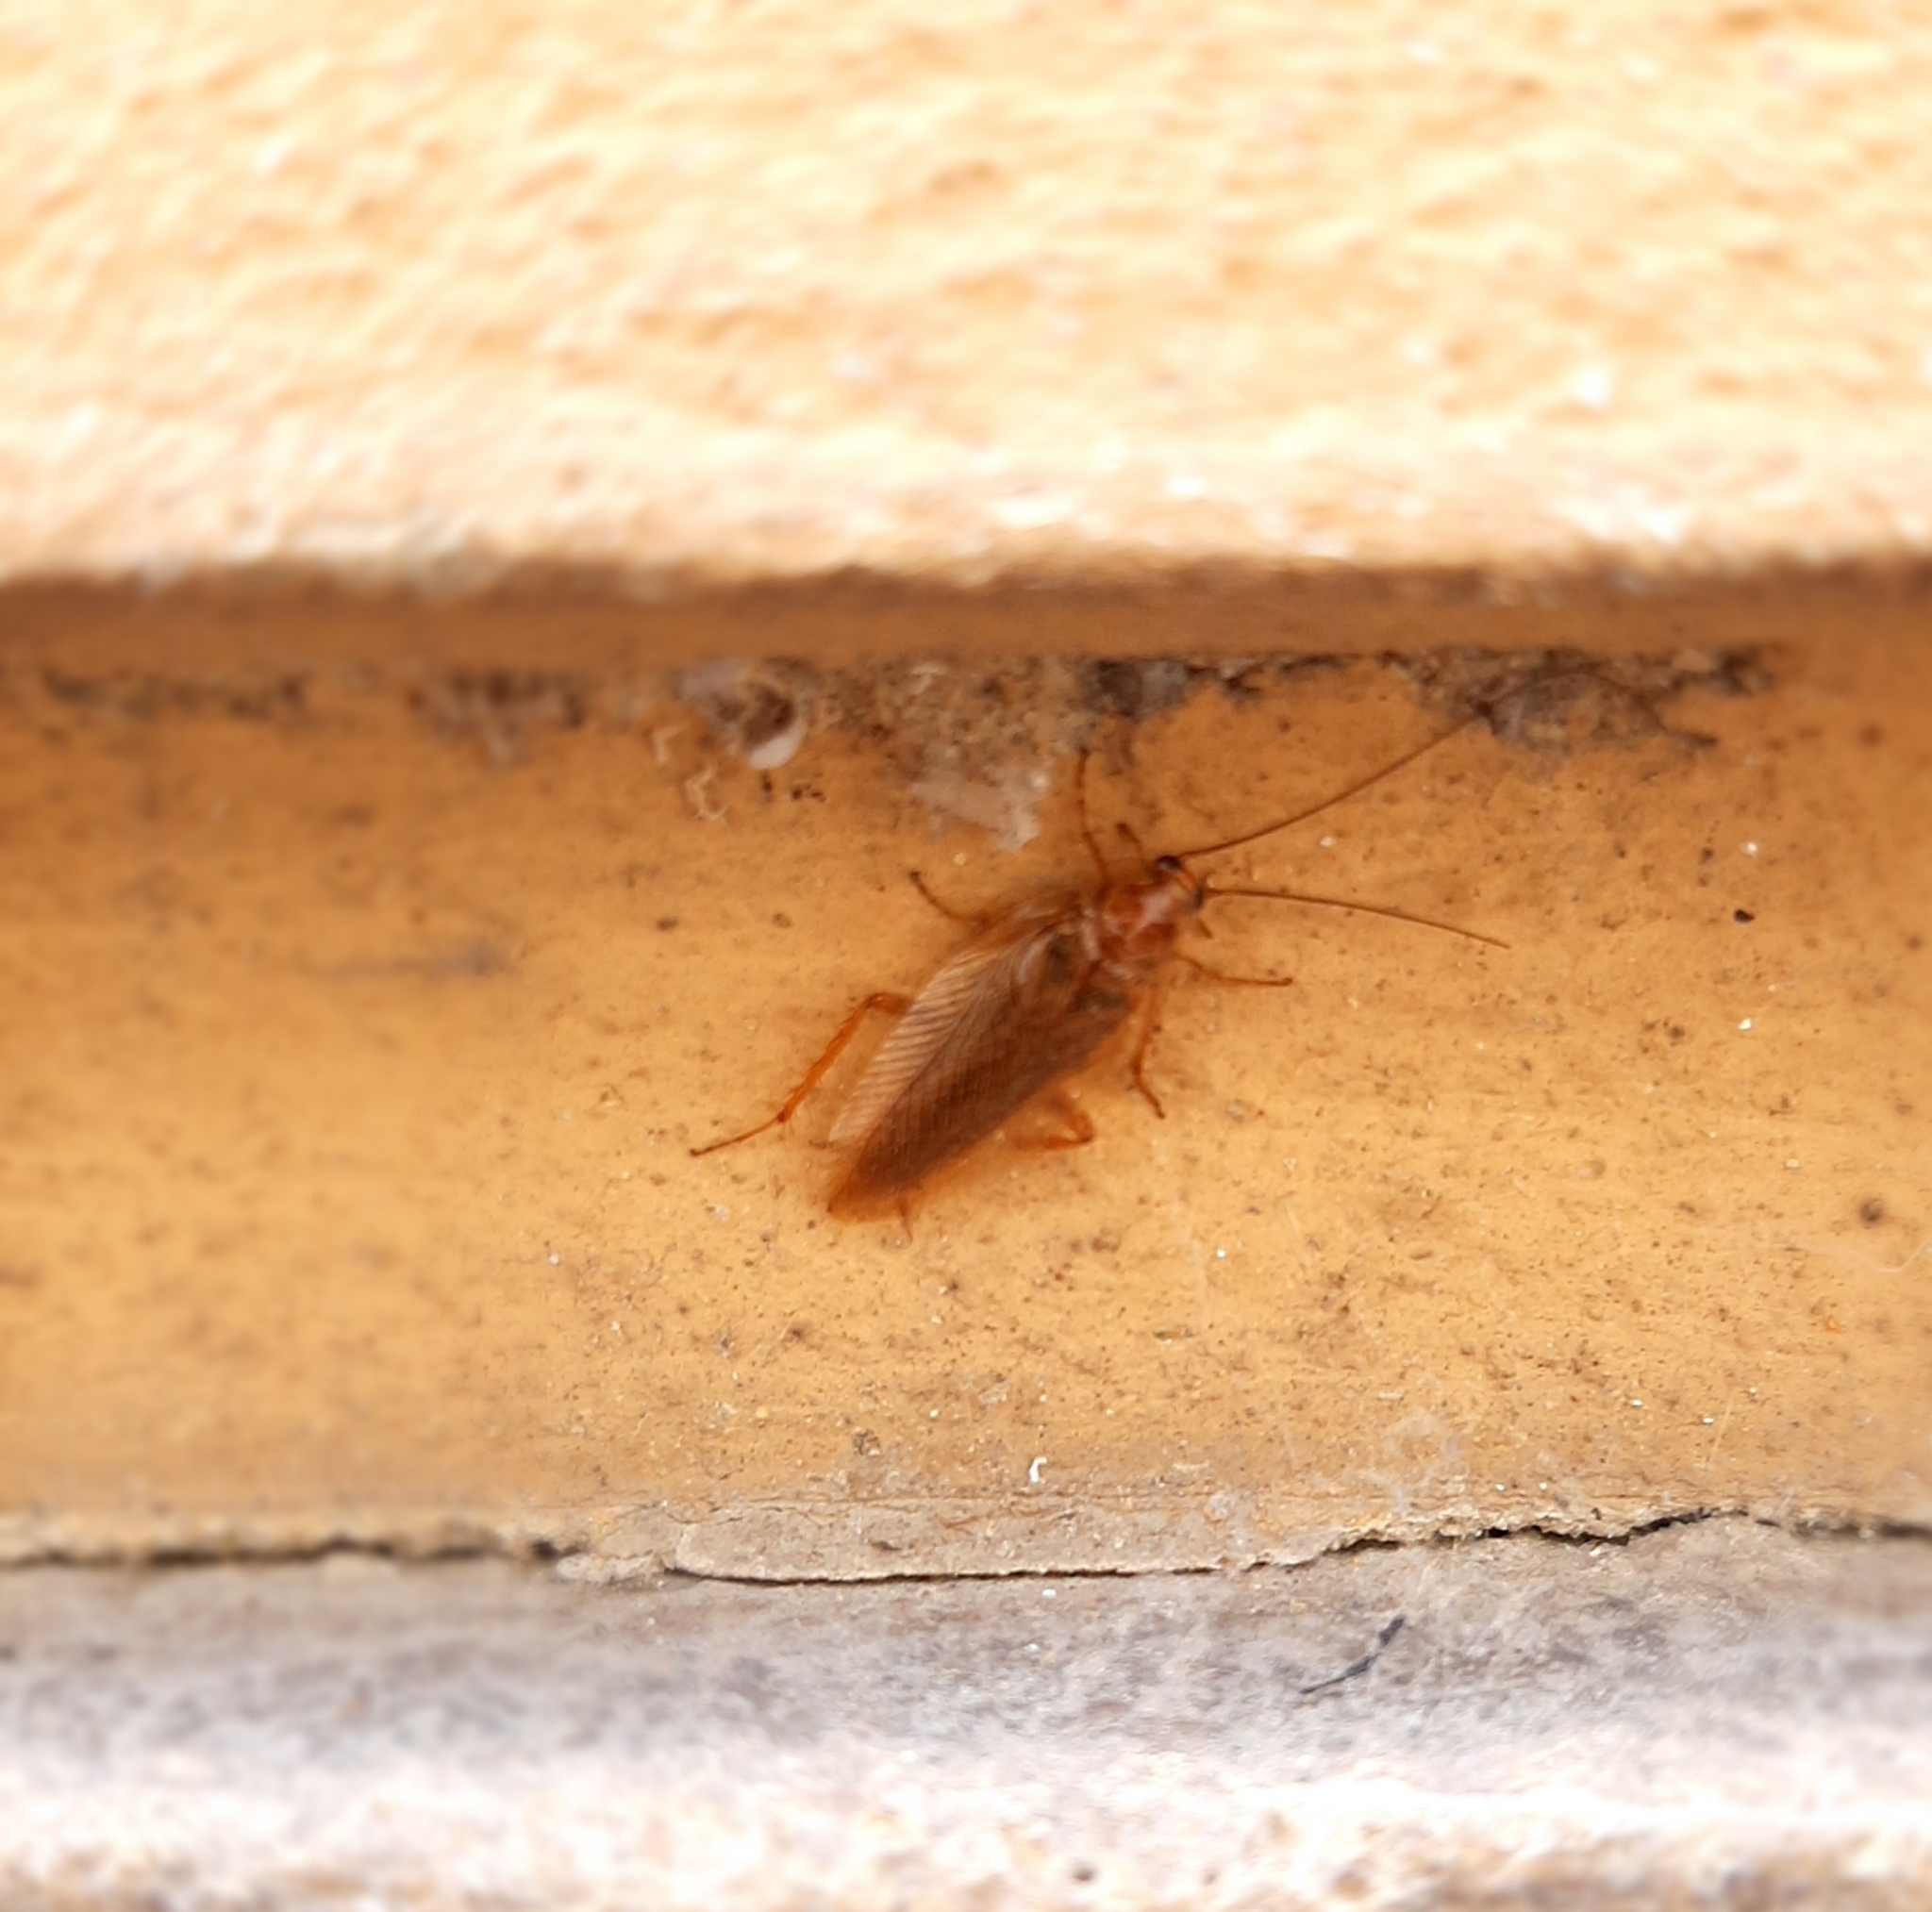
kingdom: Animalia
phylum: Arthropoda
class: Insecta
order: Blattodea
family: Ectobiidae
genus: Ectobius
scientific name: Ectobius vittiventris
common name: Garden cockroach
